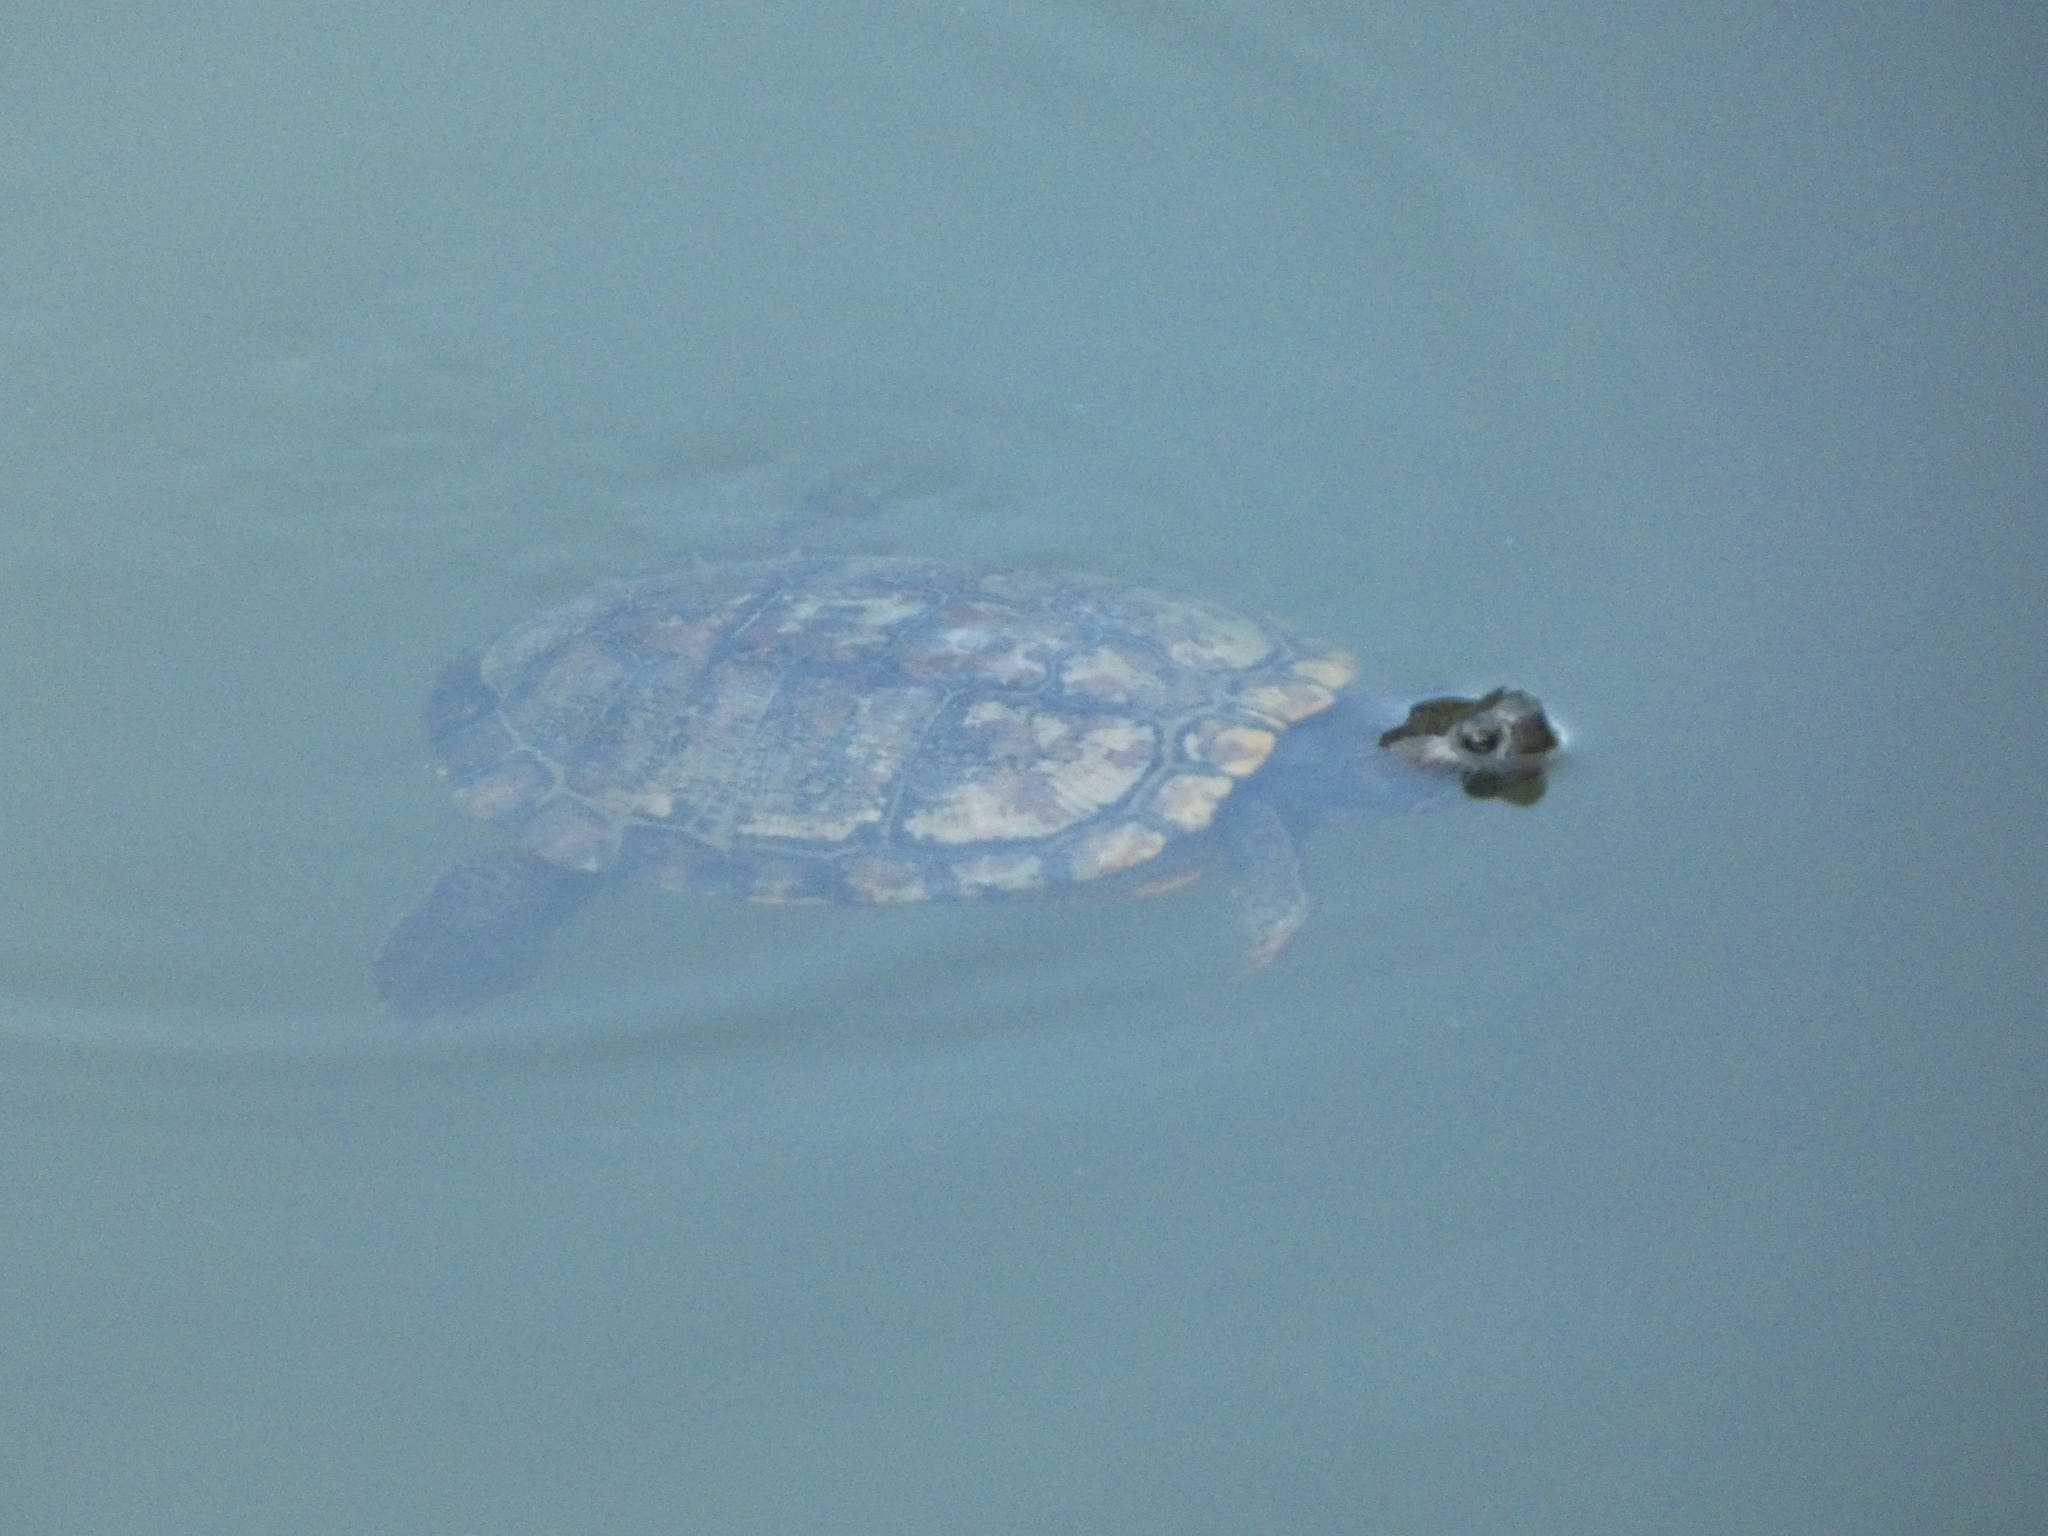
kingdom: Animalia
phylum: Chordata
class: Testudines
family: Emydidae
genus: Trachemys
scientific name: Trachemys scripta
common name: Slider
